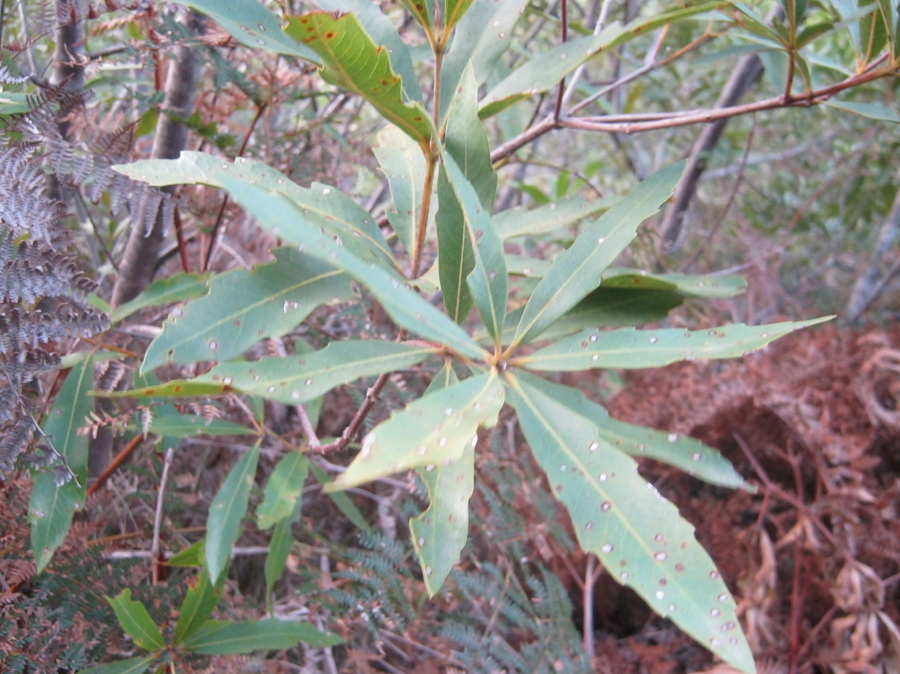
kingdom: Plantae
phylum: Tracheophyta
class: Magnoliopsida
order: Proteales
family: Proteaceae
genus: Brabejum
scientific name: Brabejum stellatifolium
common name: Wild almond
